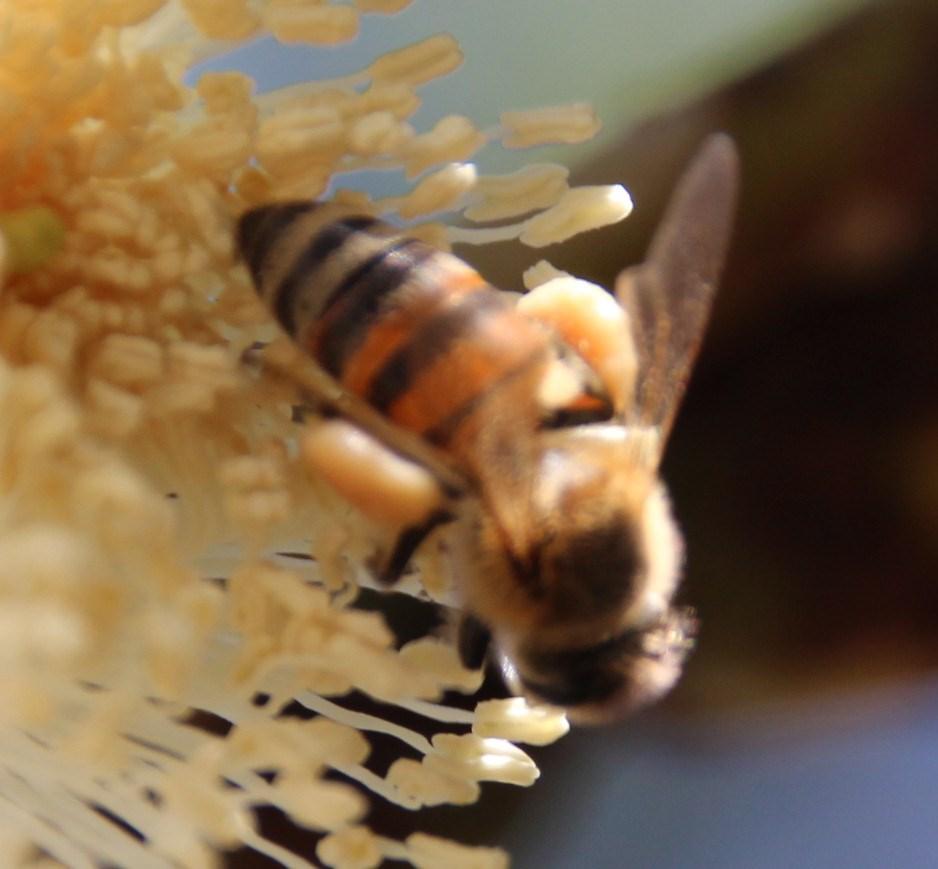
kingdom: Animalia
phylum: Arthropoda
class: Insecta
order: Hymenoptera
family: Apidae
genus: Apis
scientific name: Apis mellifera
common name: Honey bee
